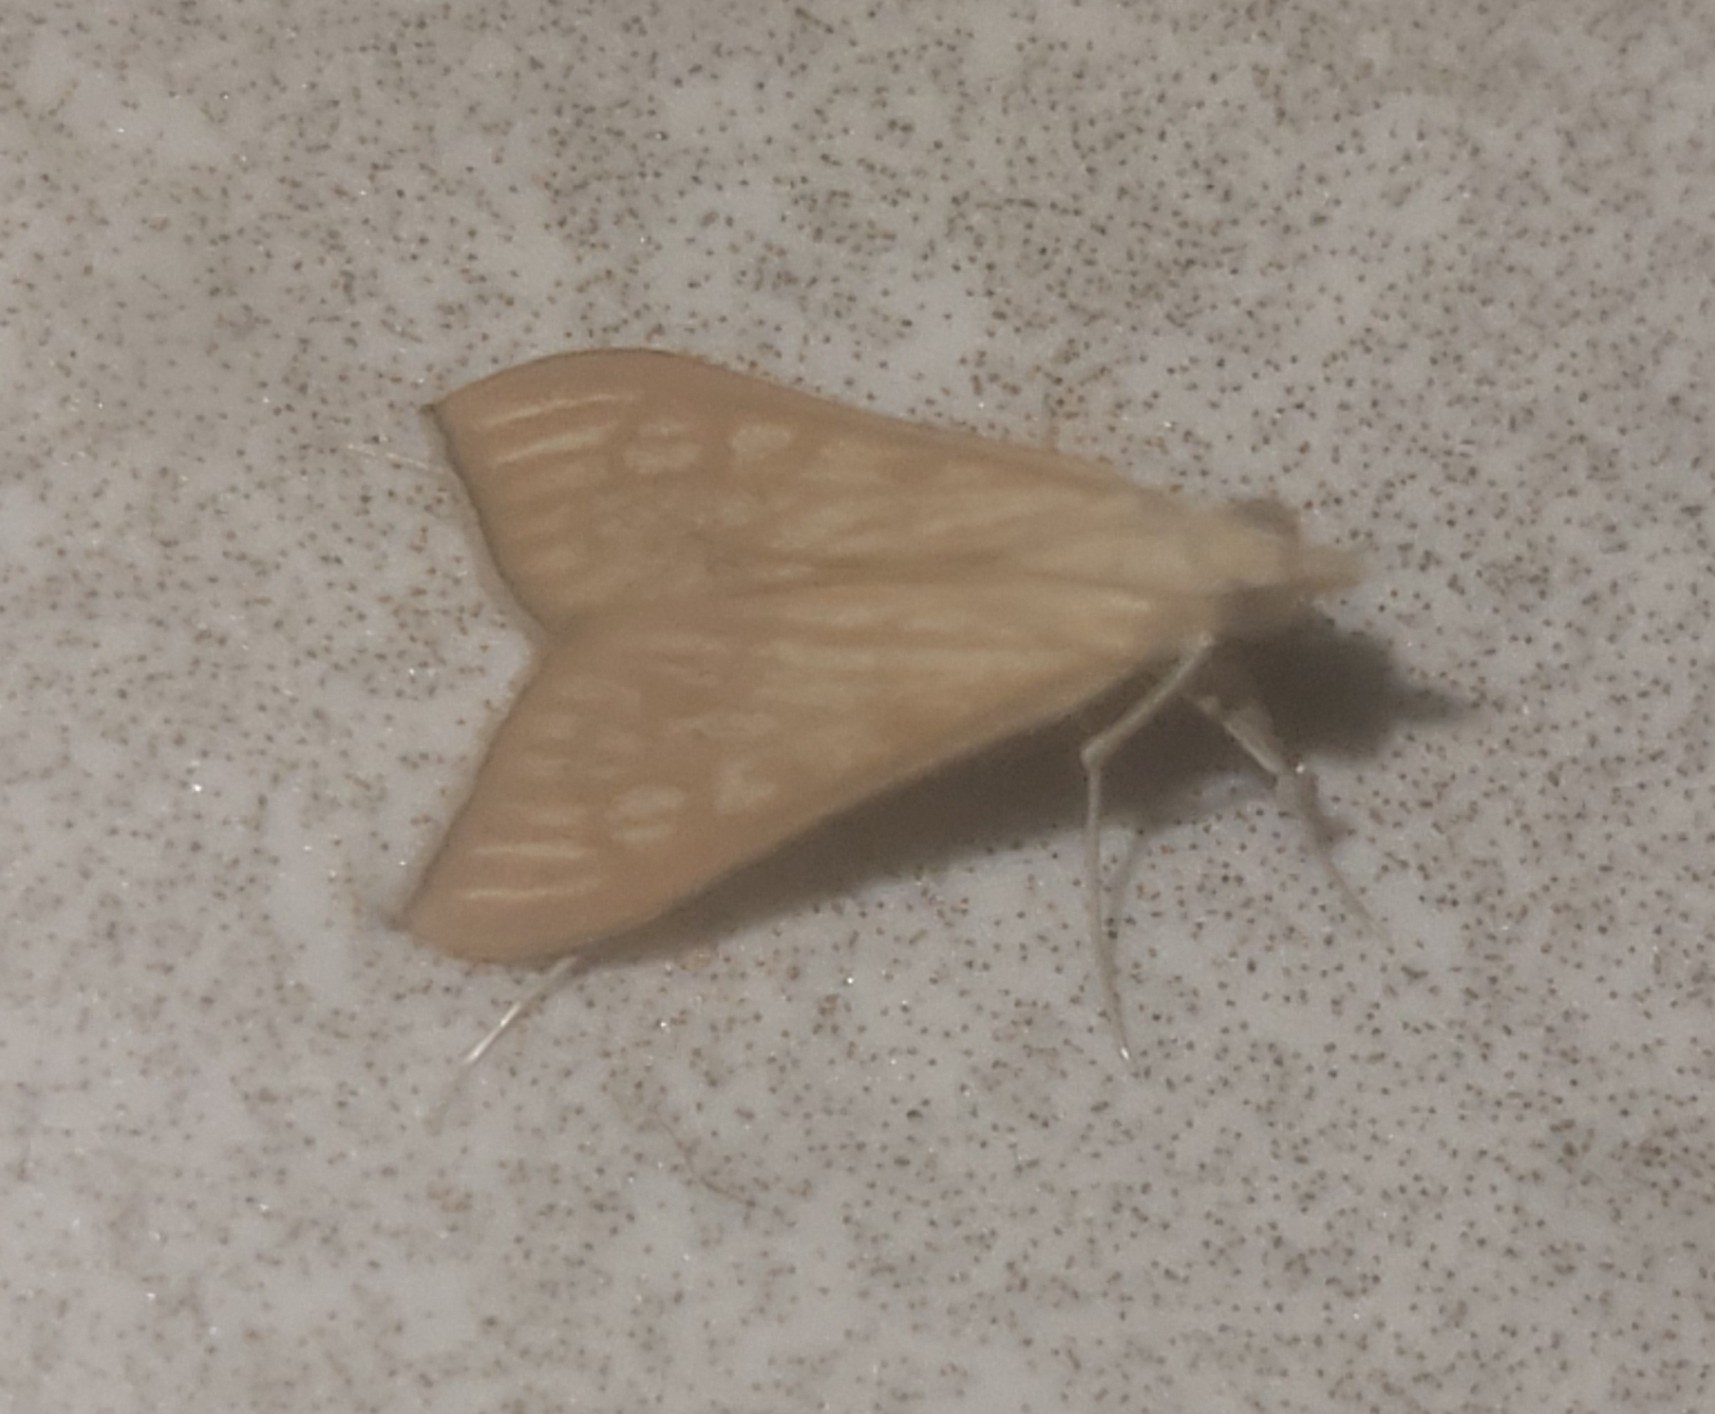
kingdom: Animalia
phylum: Arthropoda
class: Insecta
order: Lepidoptera
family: Crambidae
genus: Antigastra
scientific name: Antigastra catalaunalis
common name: Spanish dot
